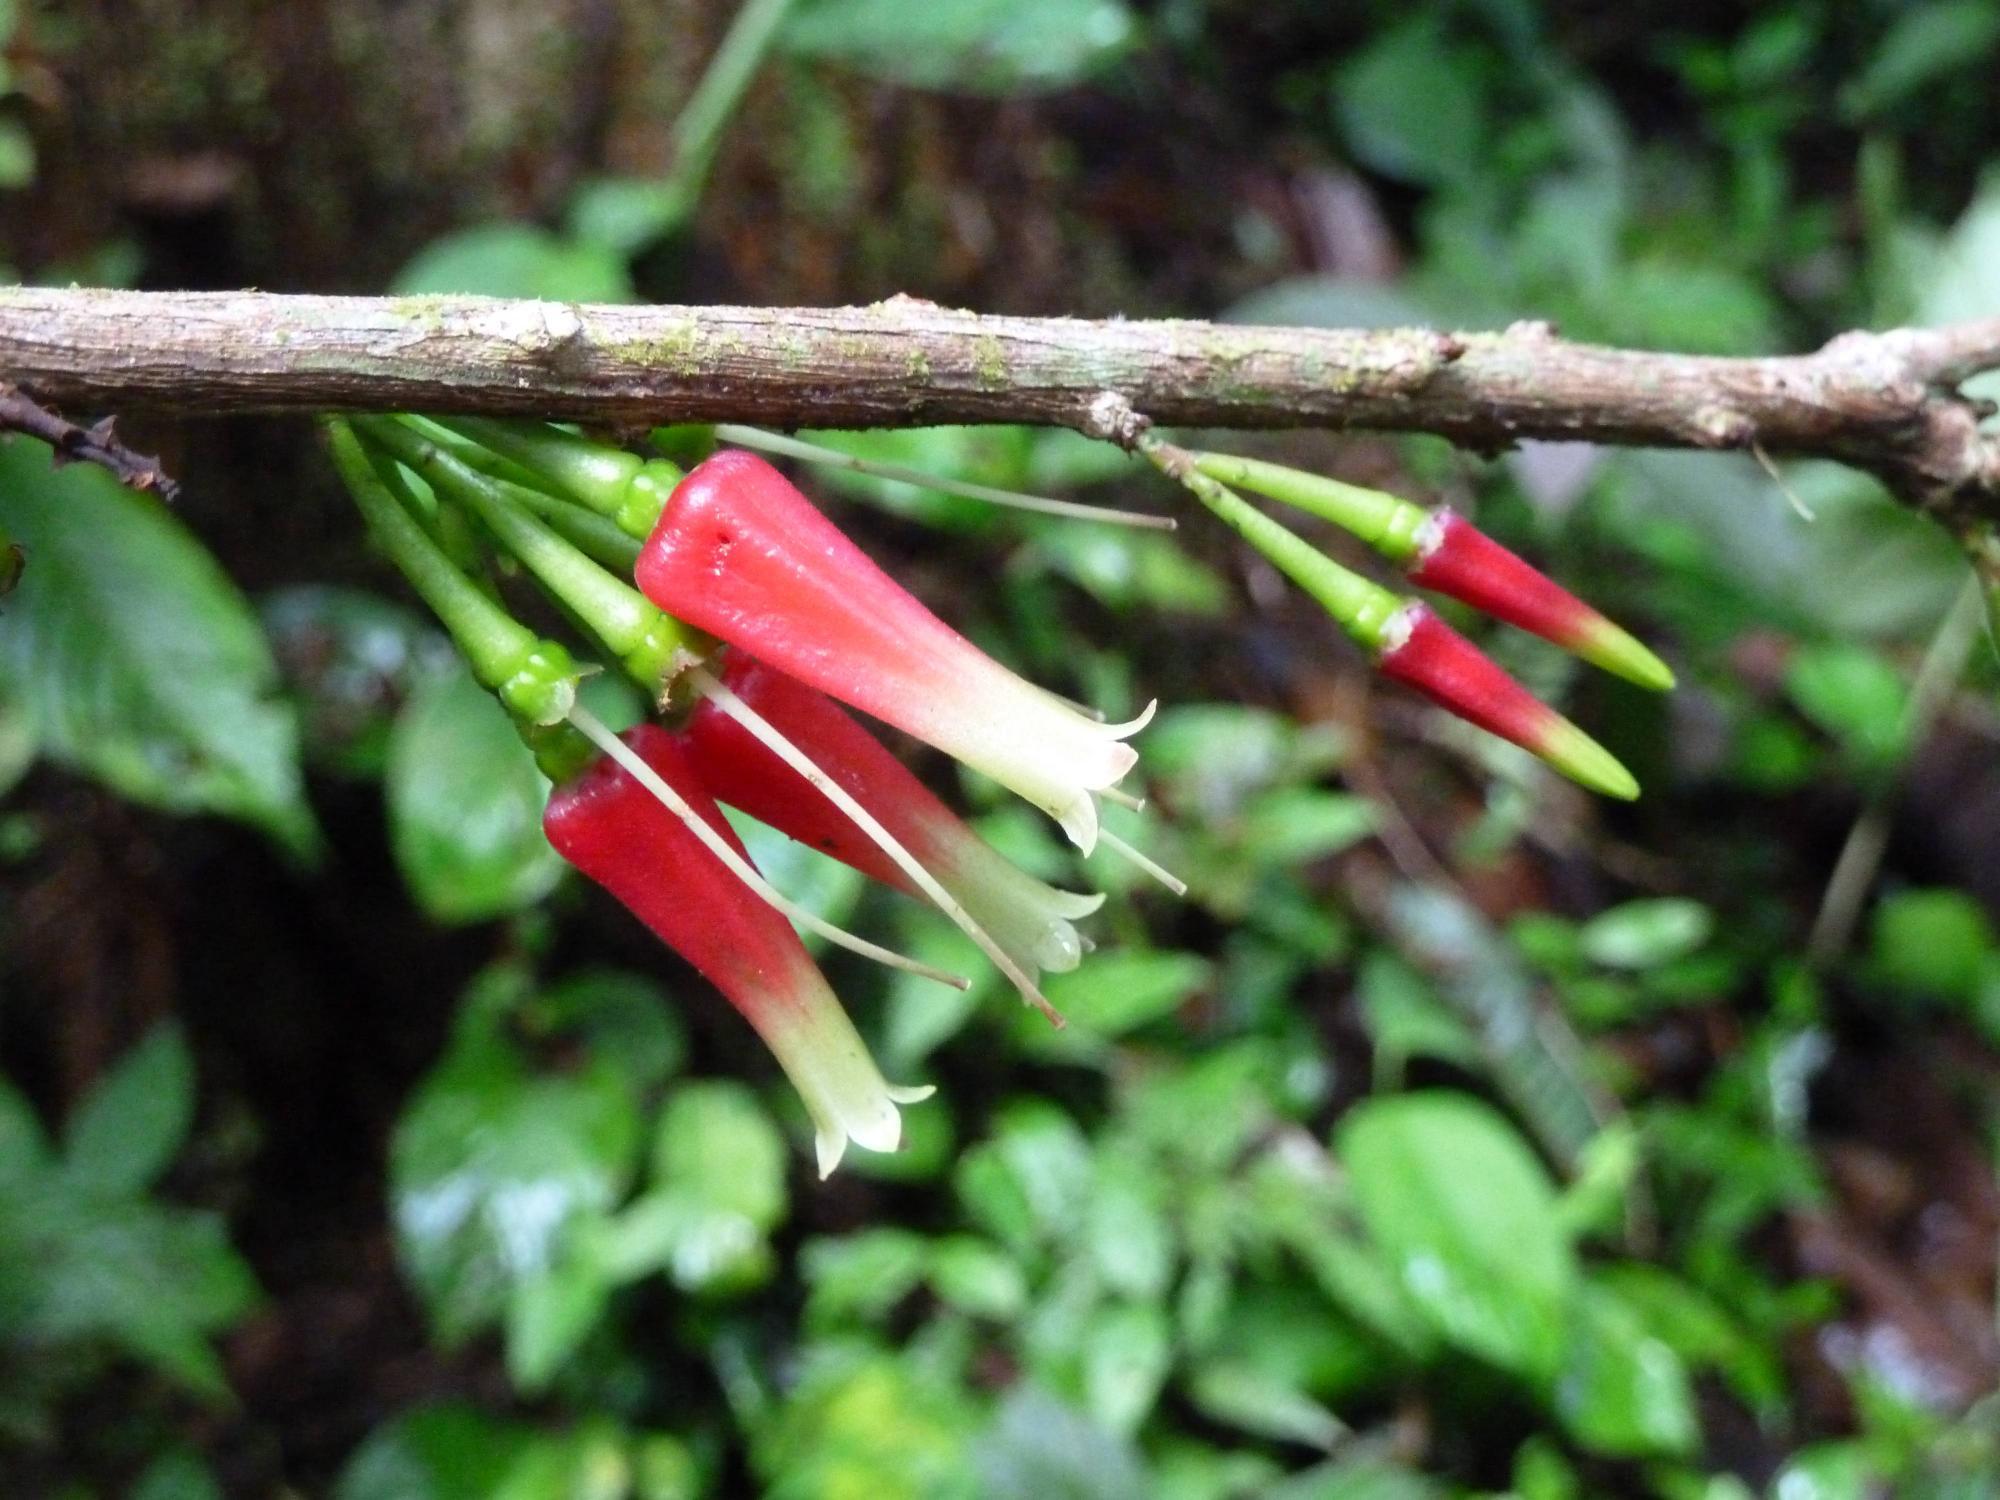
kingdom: Plantae
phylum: Tracheophyta
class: Magnoliopsida
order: Ericales
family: Ericaceae
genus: Satyria
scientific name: Satyria panurensis
